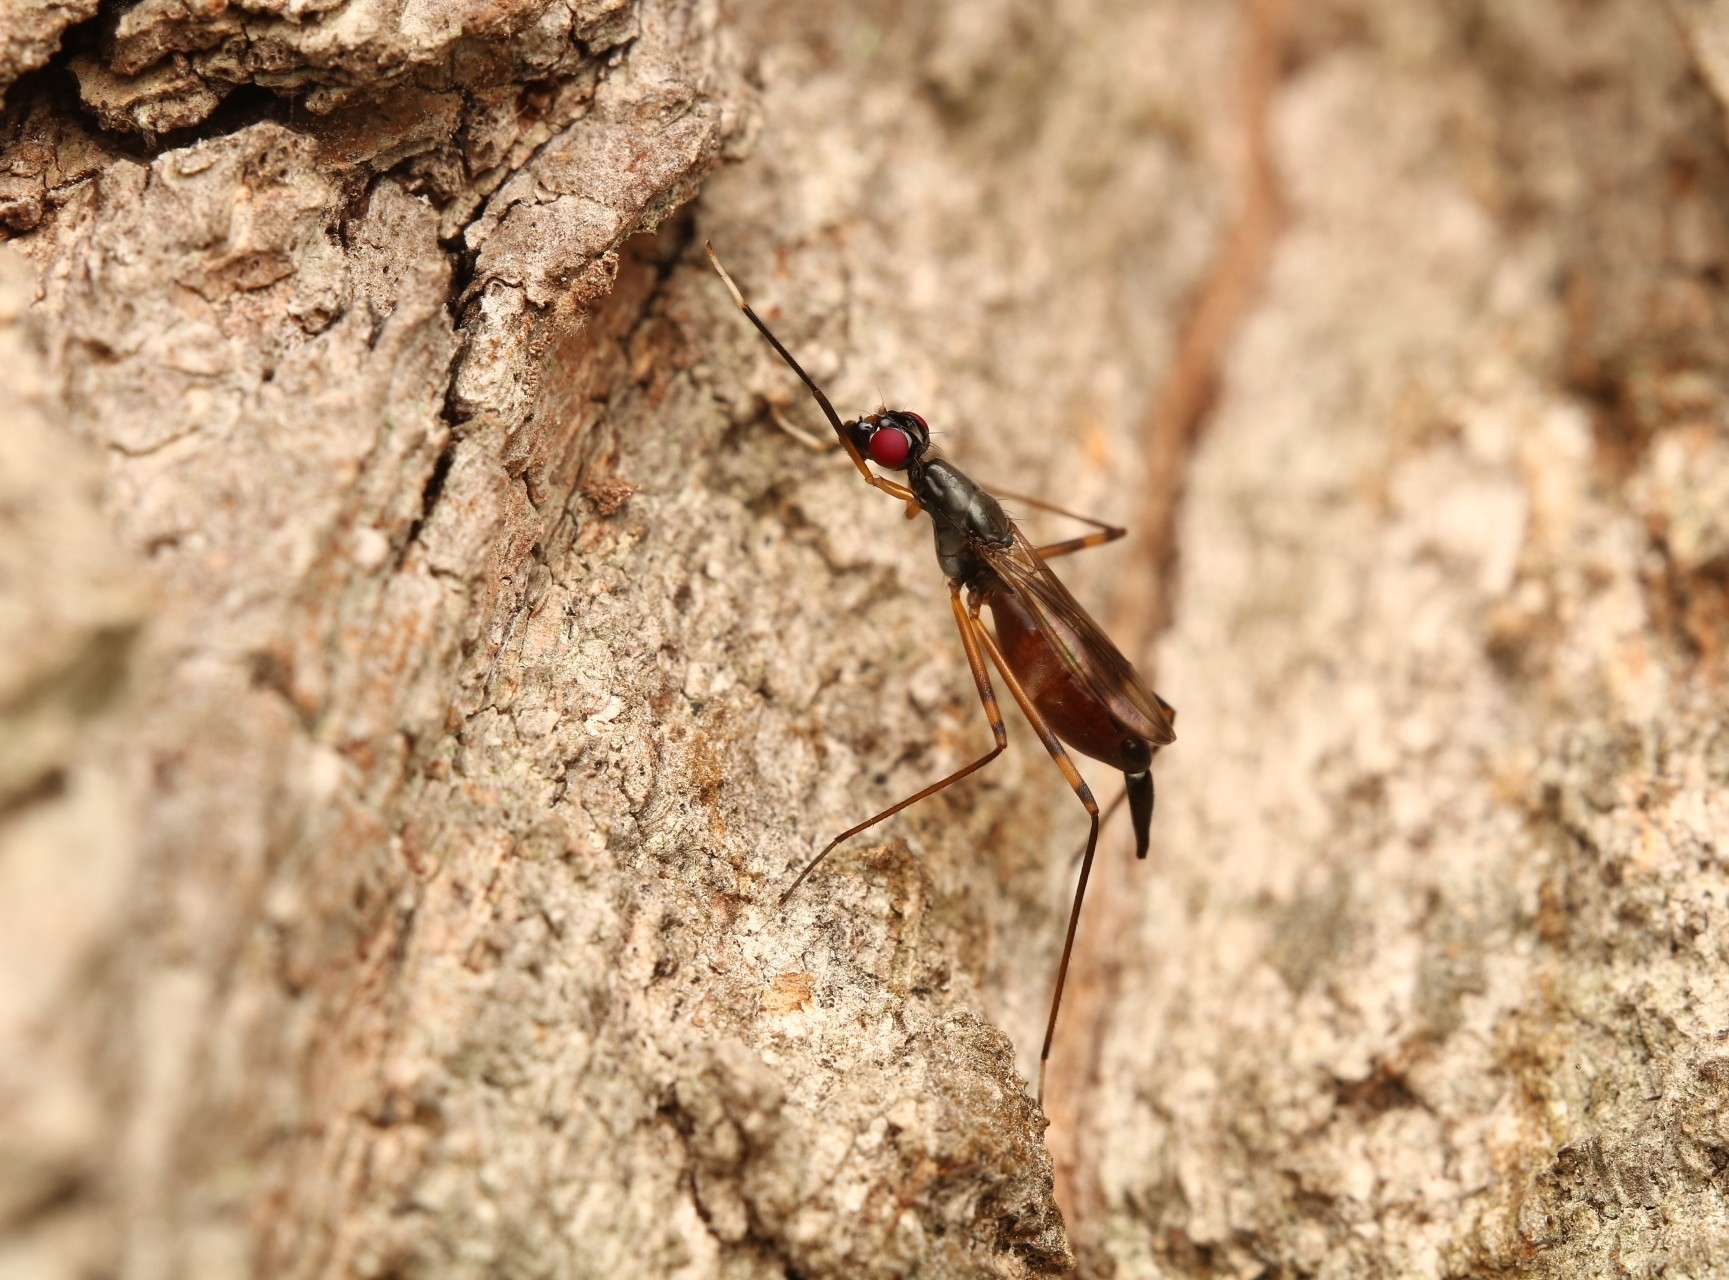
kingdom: Animalia
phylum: Arthropoda
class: Insecta
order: Diptera
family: Micropezidae
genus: Rainieria
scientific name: Rainieria antennaepes
